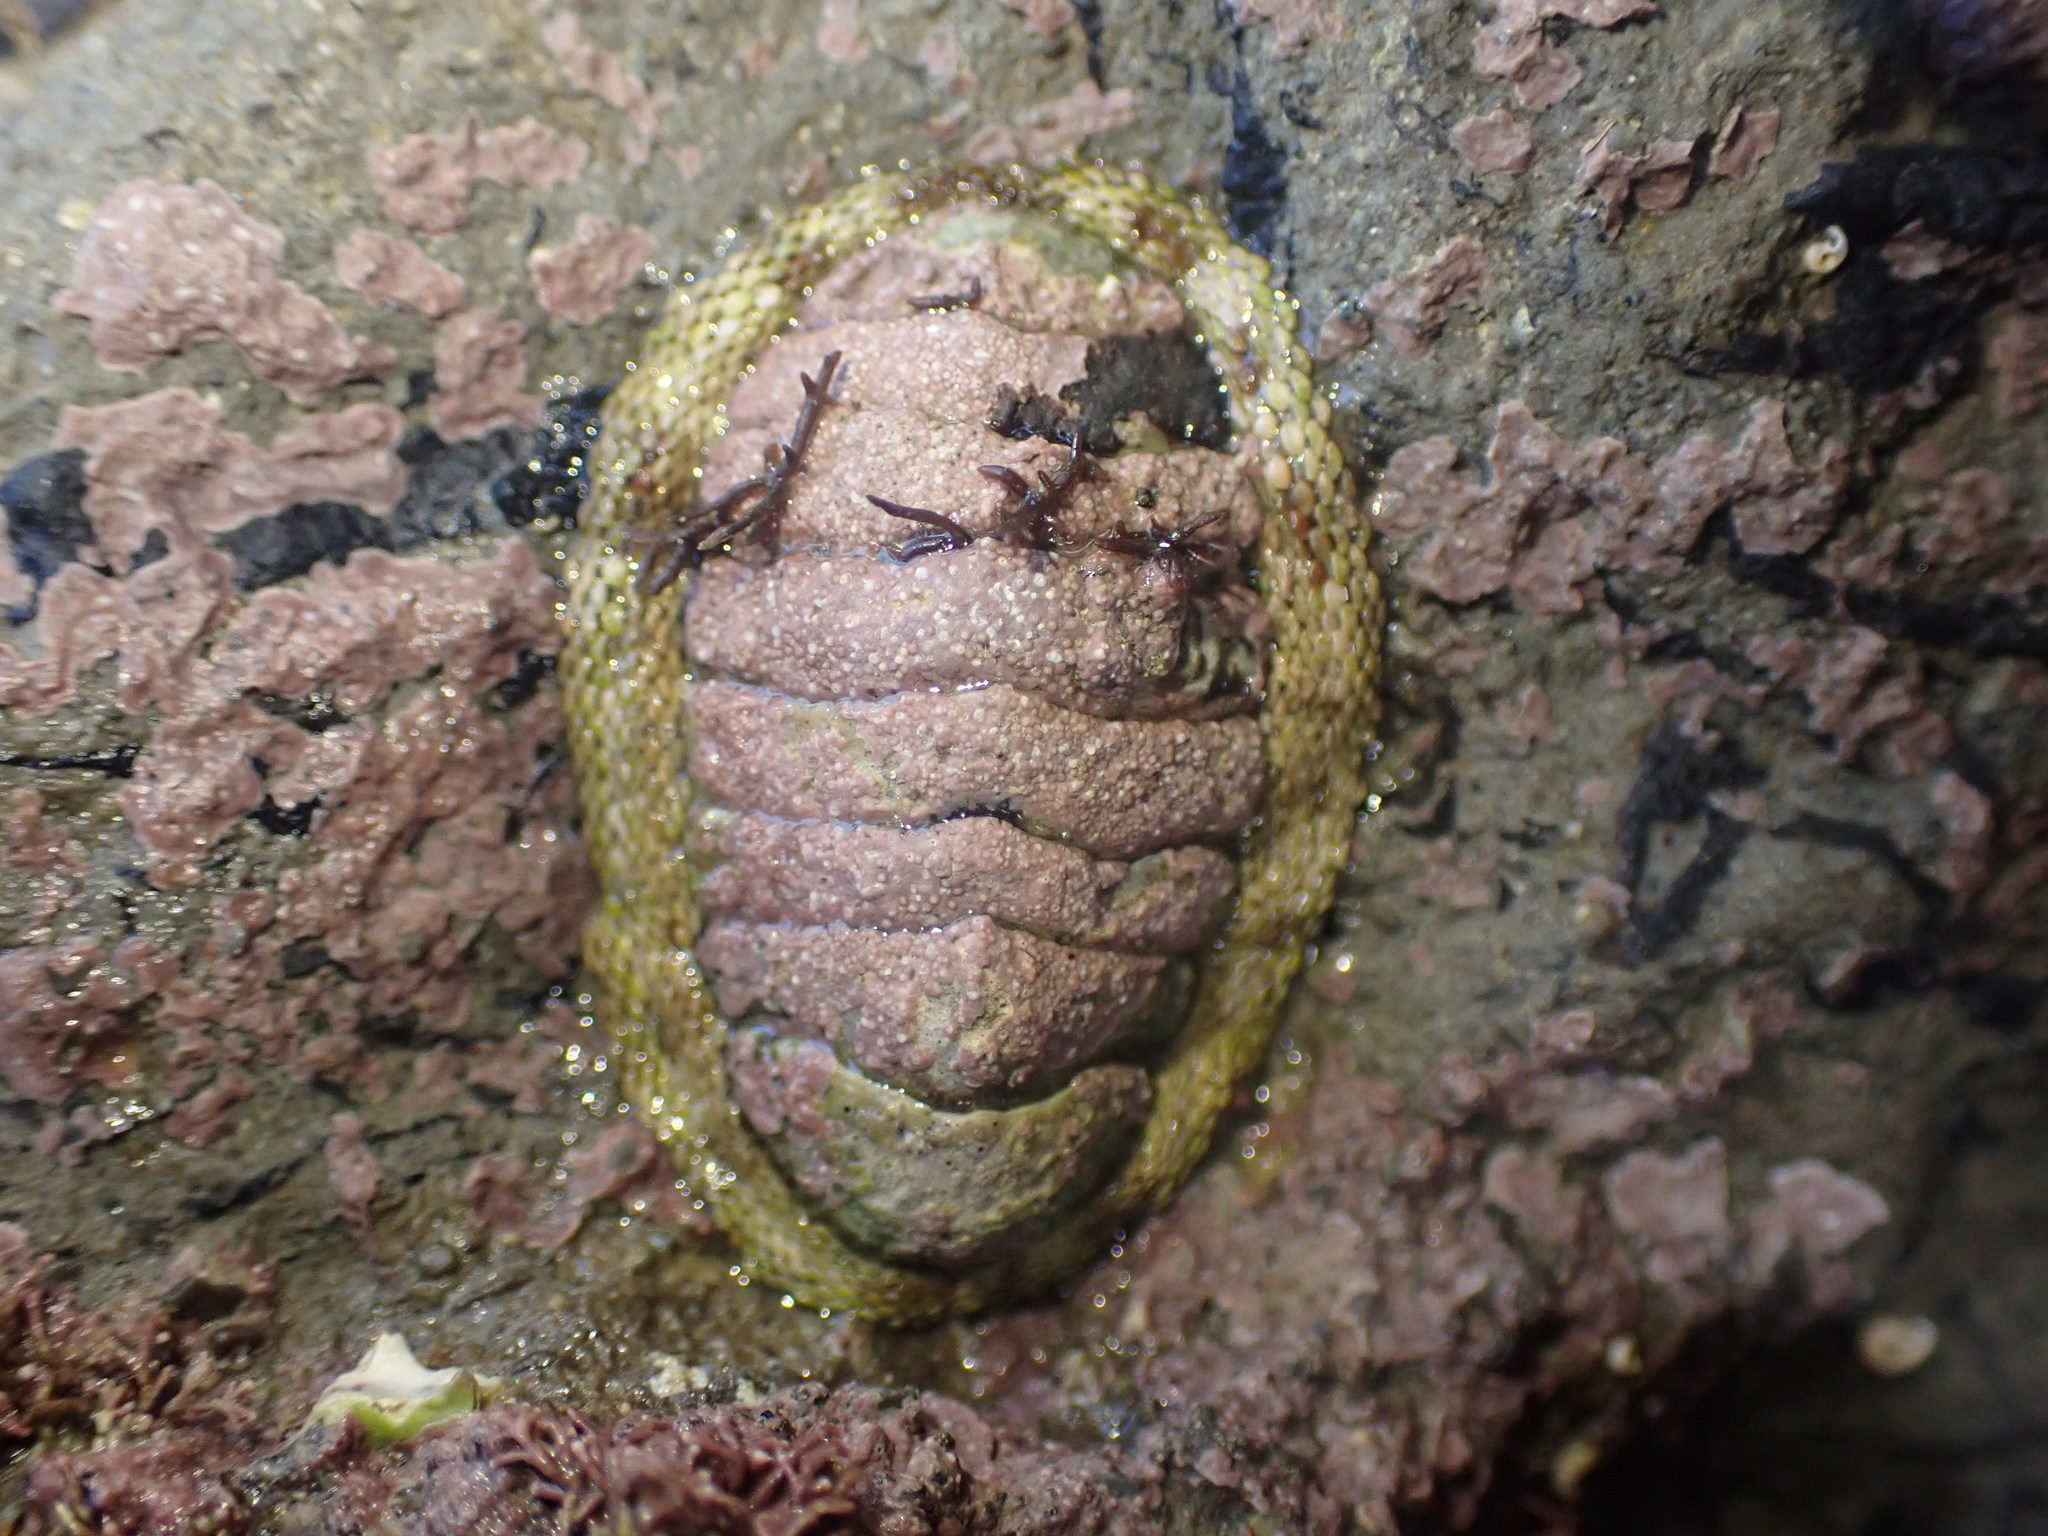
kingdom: Animalia
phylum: Mollusca
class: Polyplacophora
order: Chitonida
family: Chitonidae
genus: Sypharochiton
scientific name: Sypharochiton pelliserpentis
